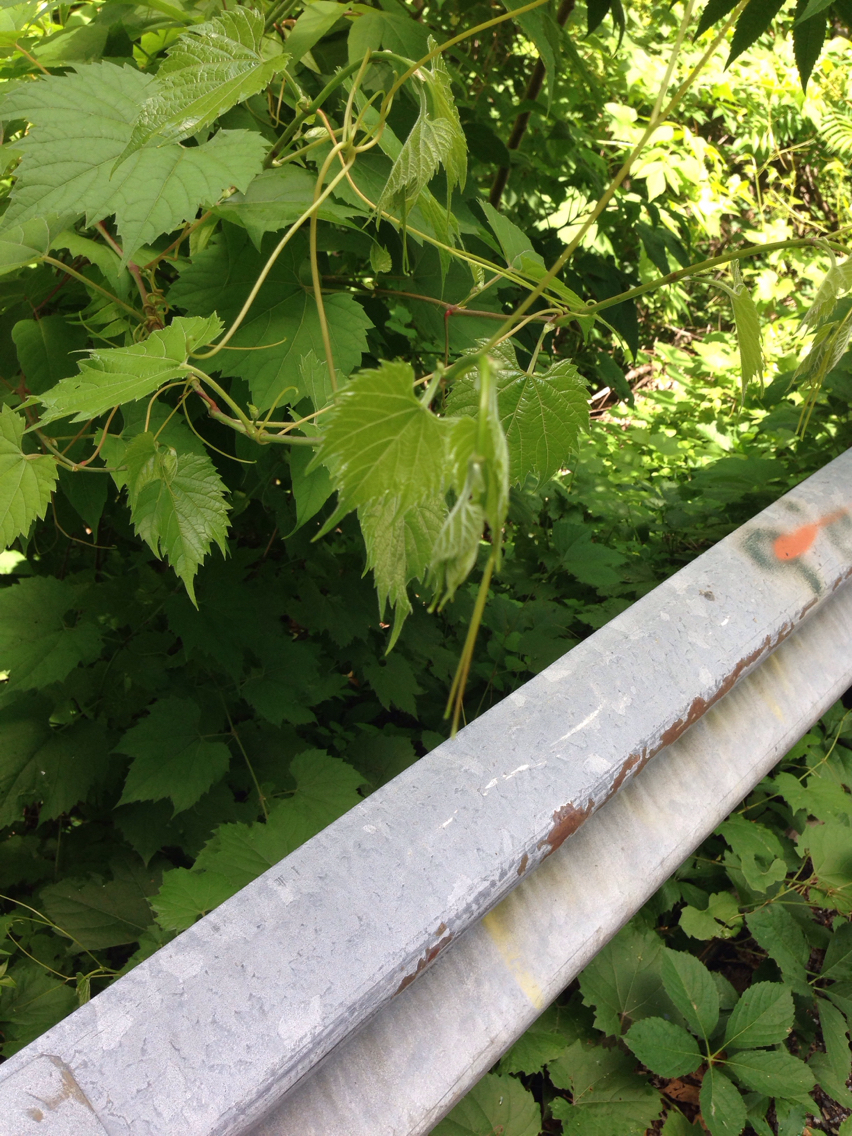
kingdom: Plantae
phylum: Tracheophyta
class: Magnoliopsida
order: Vitales
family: Vitaceae
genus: Vitis
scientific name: Vitis riparia
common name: Frost grape
